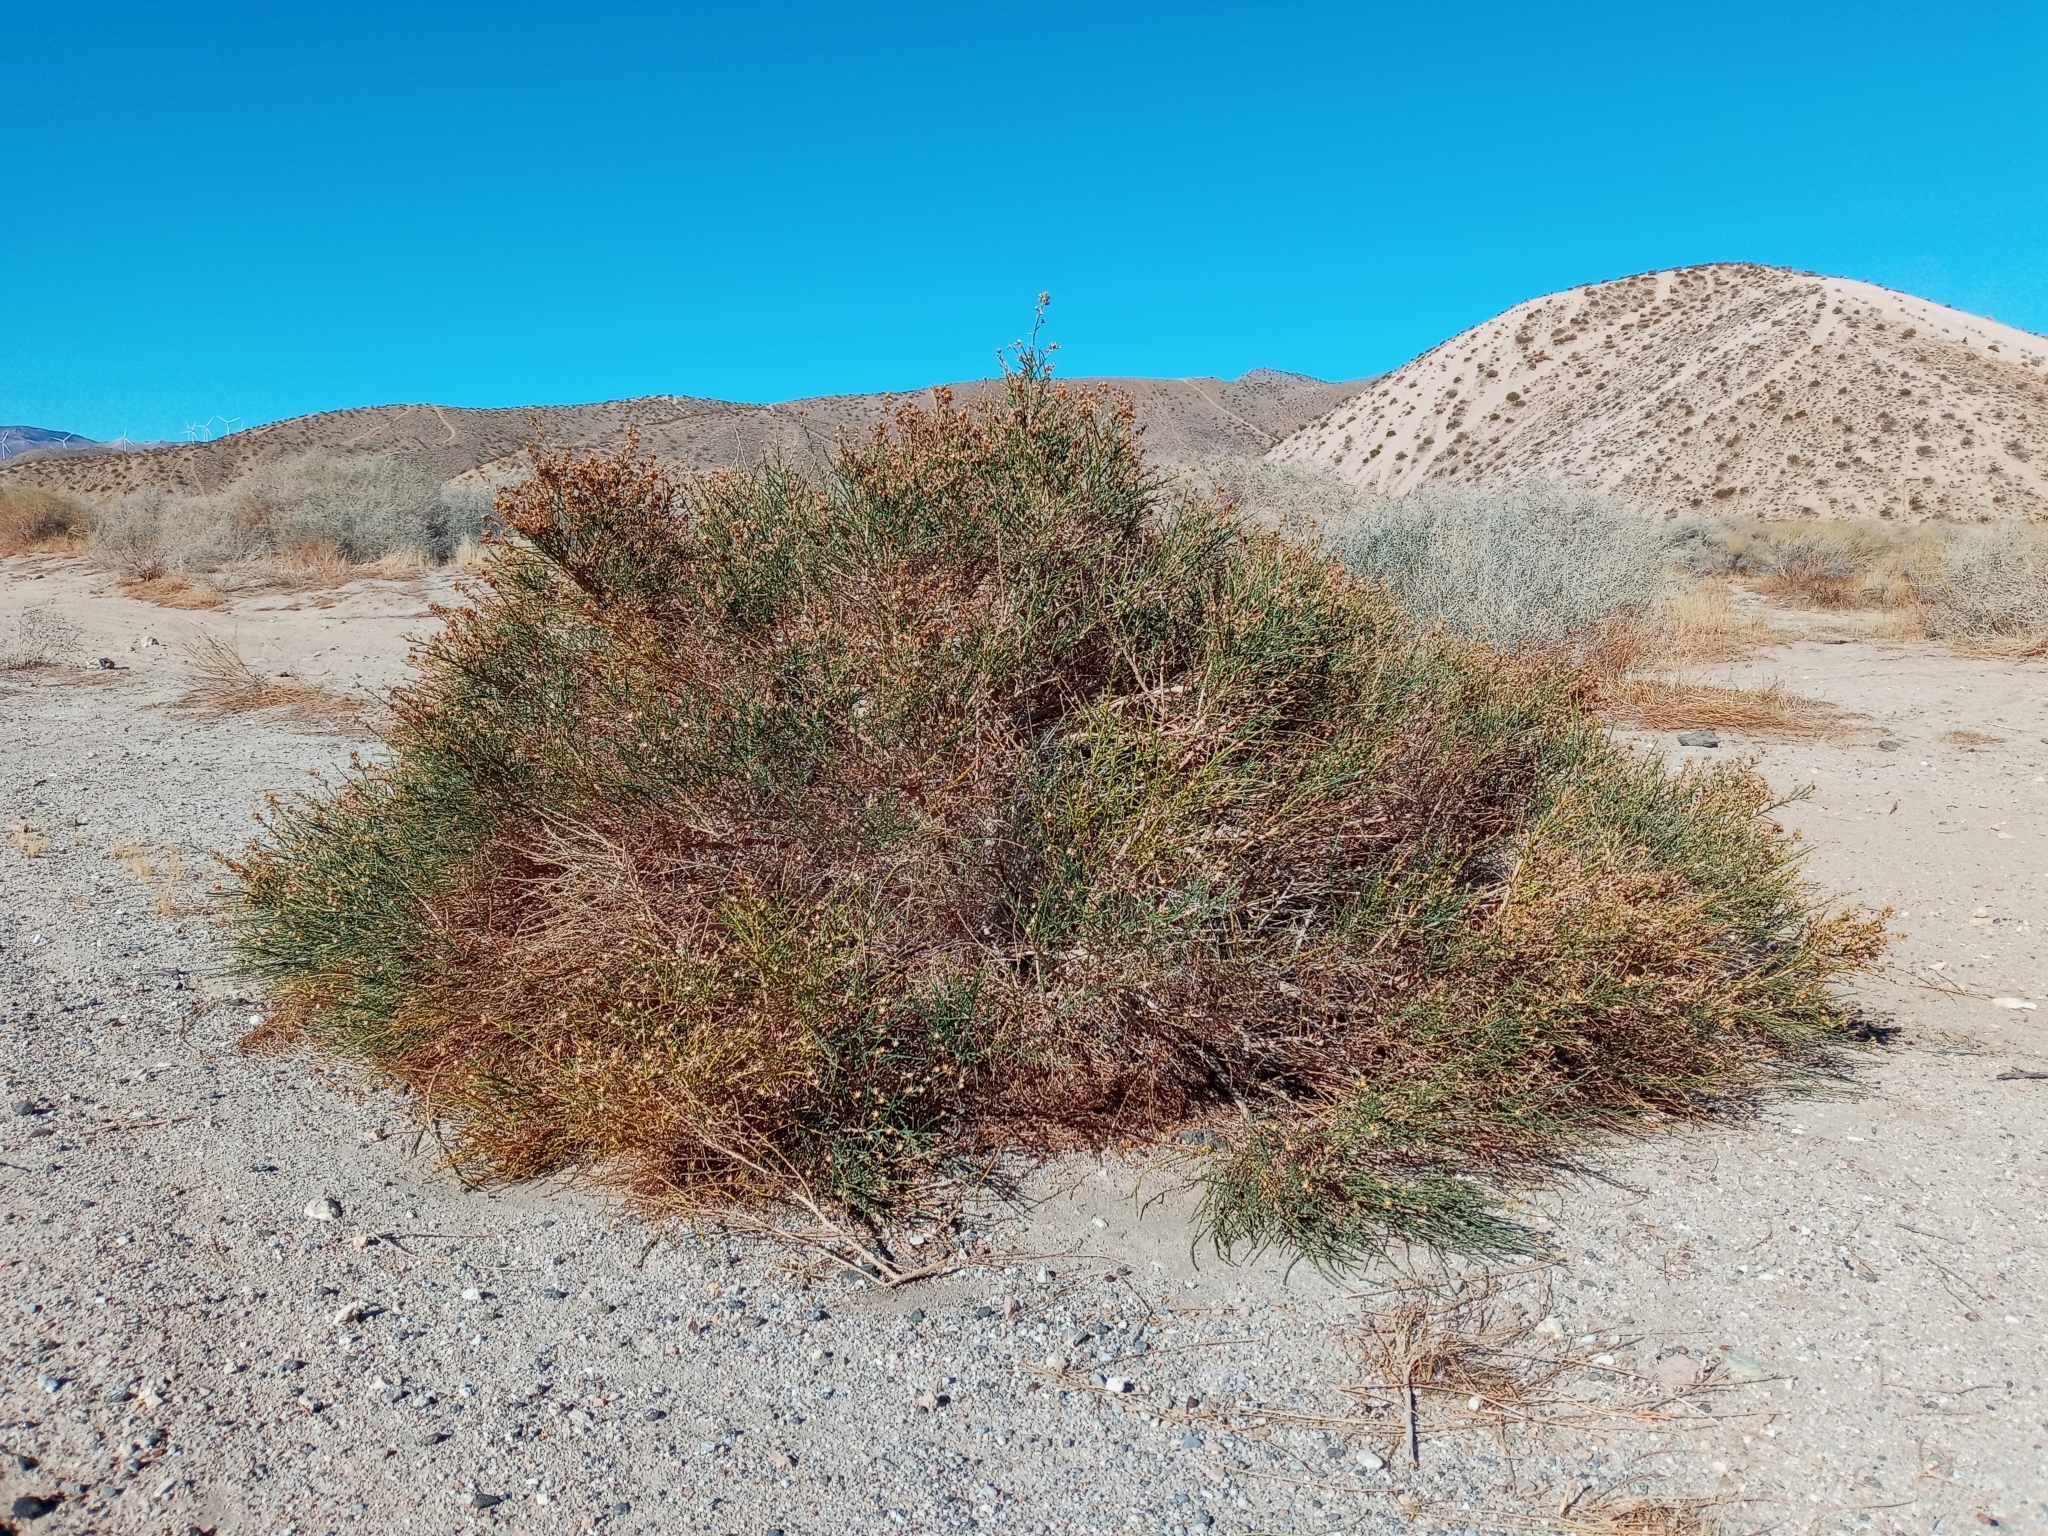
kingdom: Plantae
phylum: Tracheophyta
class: Magnoliopsida
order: Asterales
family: Asteraceae
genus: Lepidospartum
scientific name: Lepidospartum squamatum
